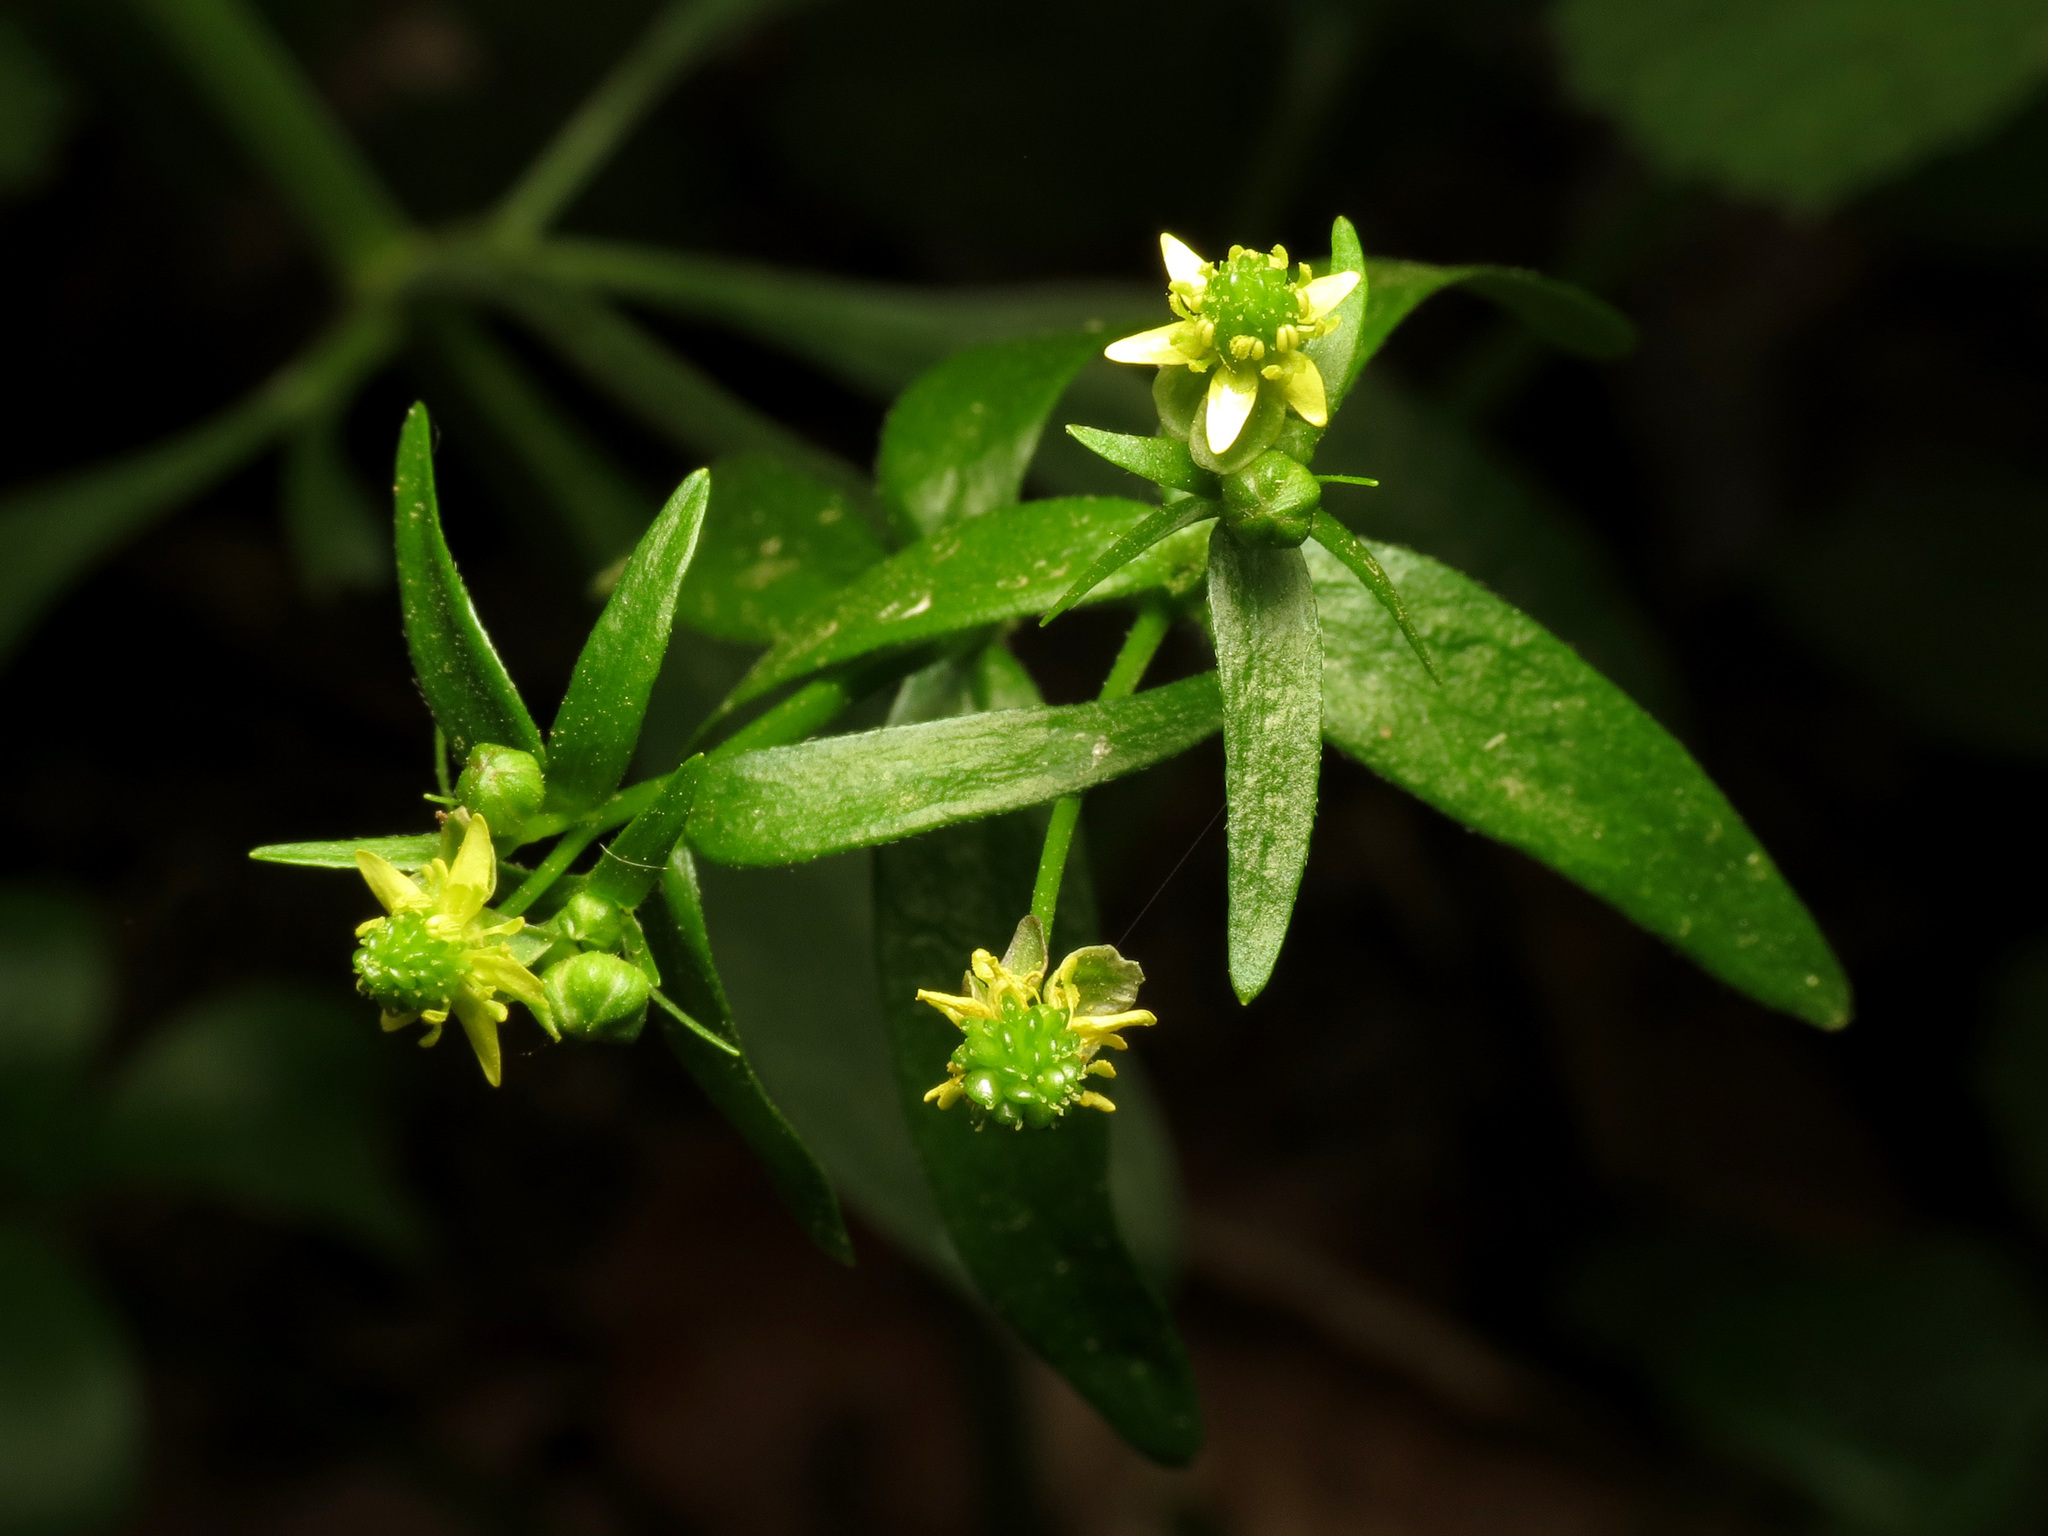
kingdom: Plantae
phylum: Tracheophyta
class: Magnoliopsida
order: Ranunculales
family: Ranunculaceae
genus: Ranunculus
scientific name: Ranunculus abortivus
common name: Early wood buttercup
